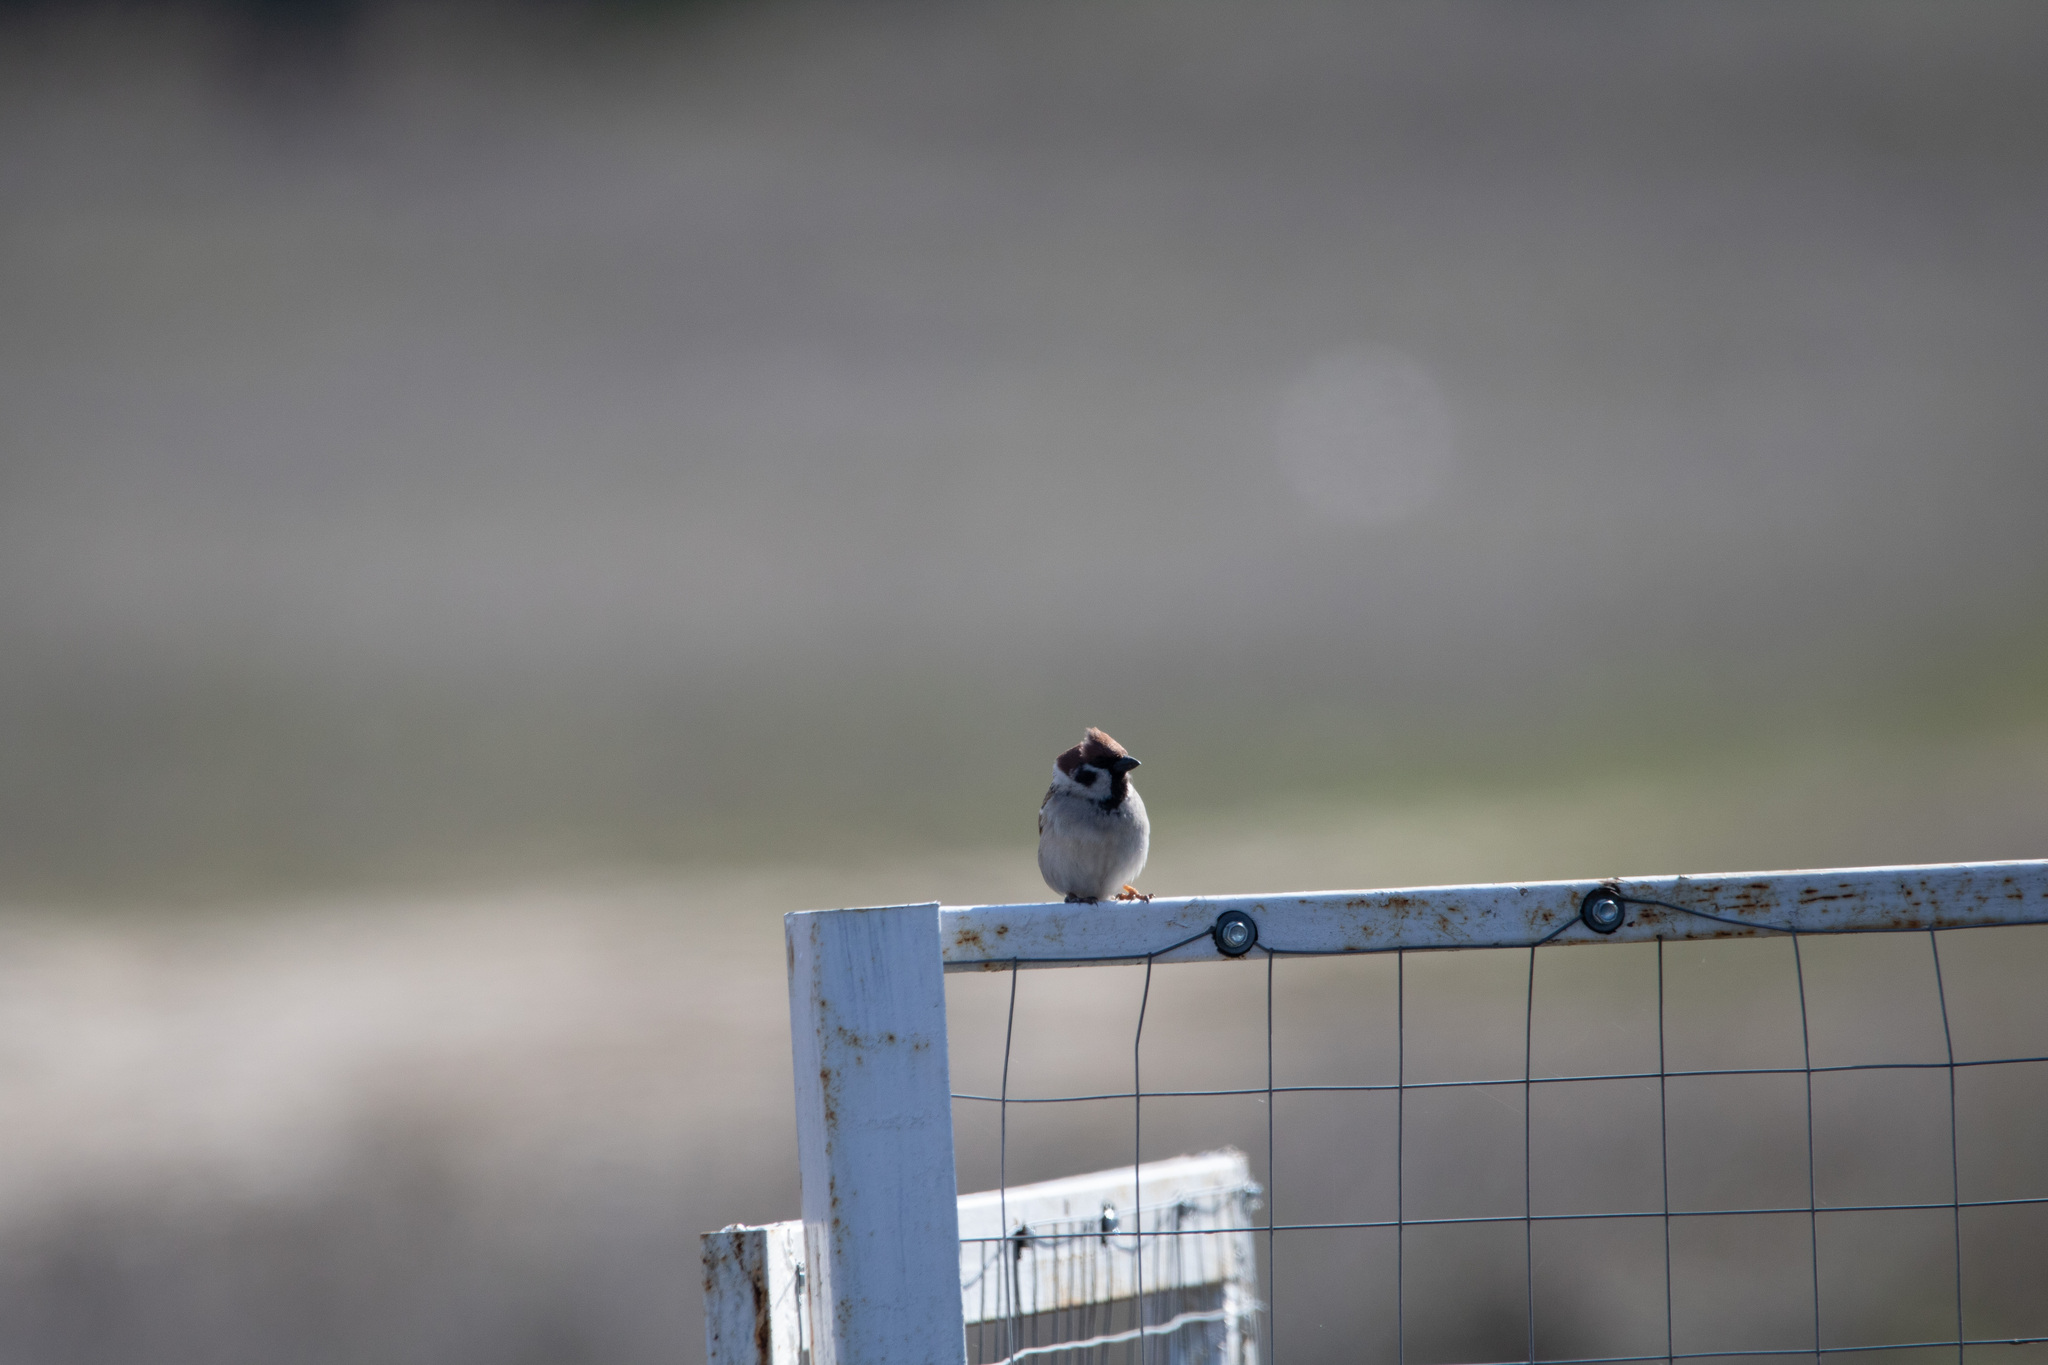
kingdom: Animalia
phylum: Chordata
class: Aves
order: Passeriformes
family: Passeridae
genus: Passer
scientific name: Passer montanus
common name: Eurasian tree sparrow
